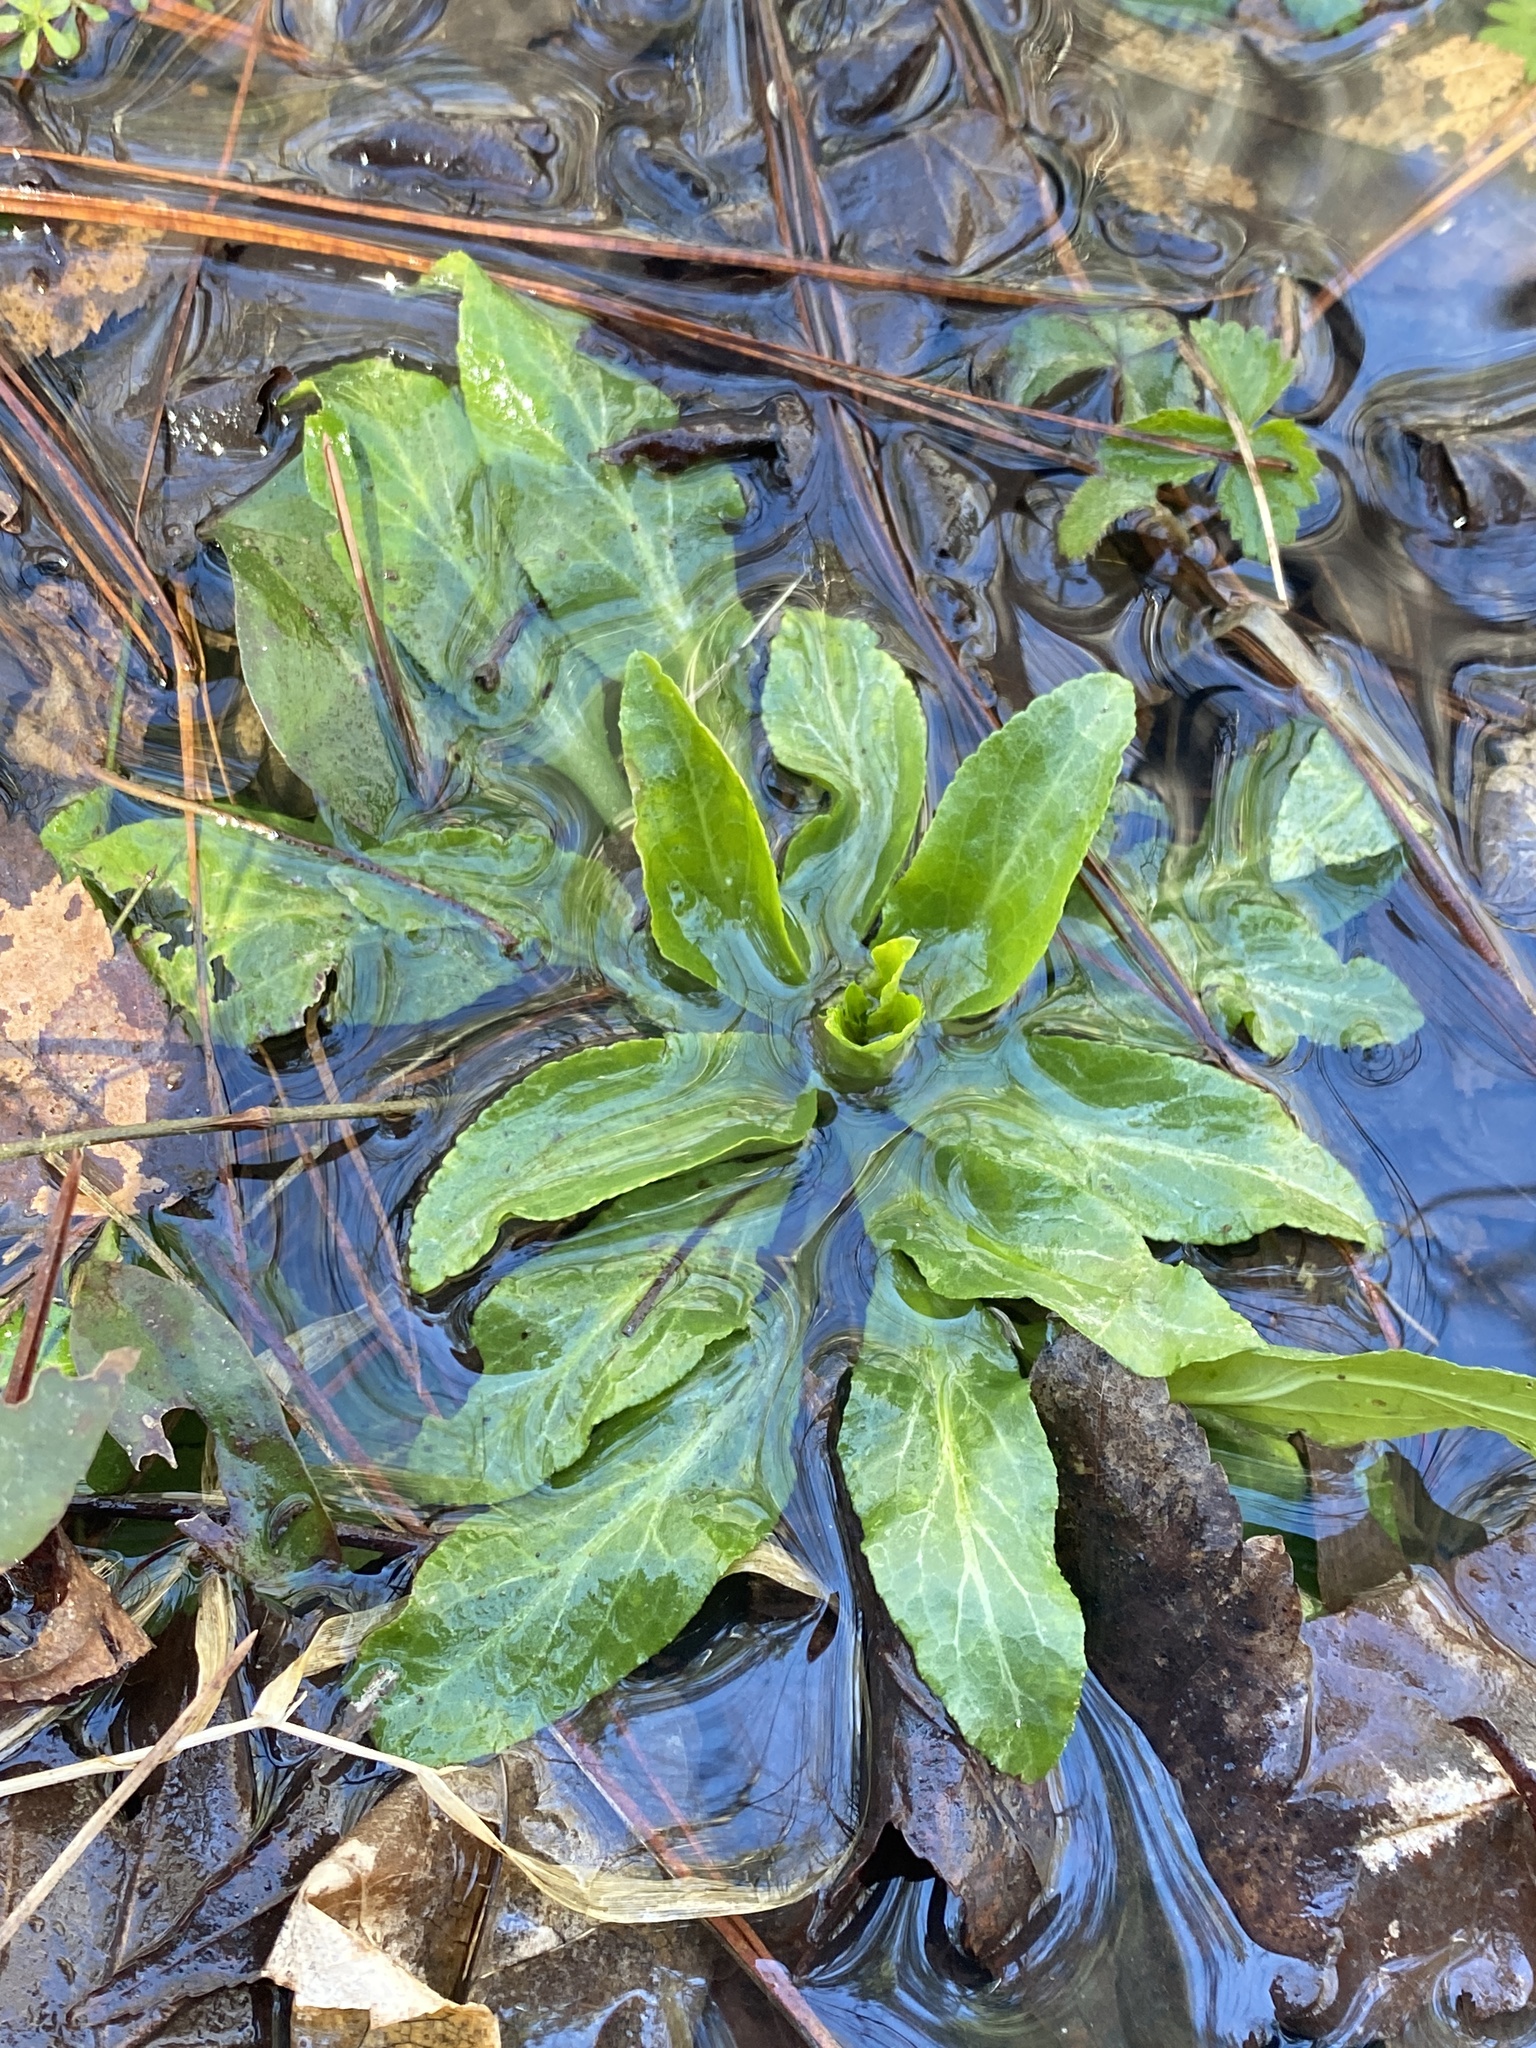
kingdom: Plantae
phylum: Tracheophyta
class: Magnoliopsida
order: Asterales
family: Campanulaceae
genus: Lobelia
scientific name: Lobelia cardinalis
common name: Cardinal flower
